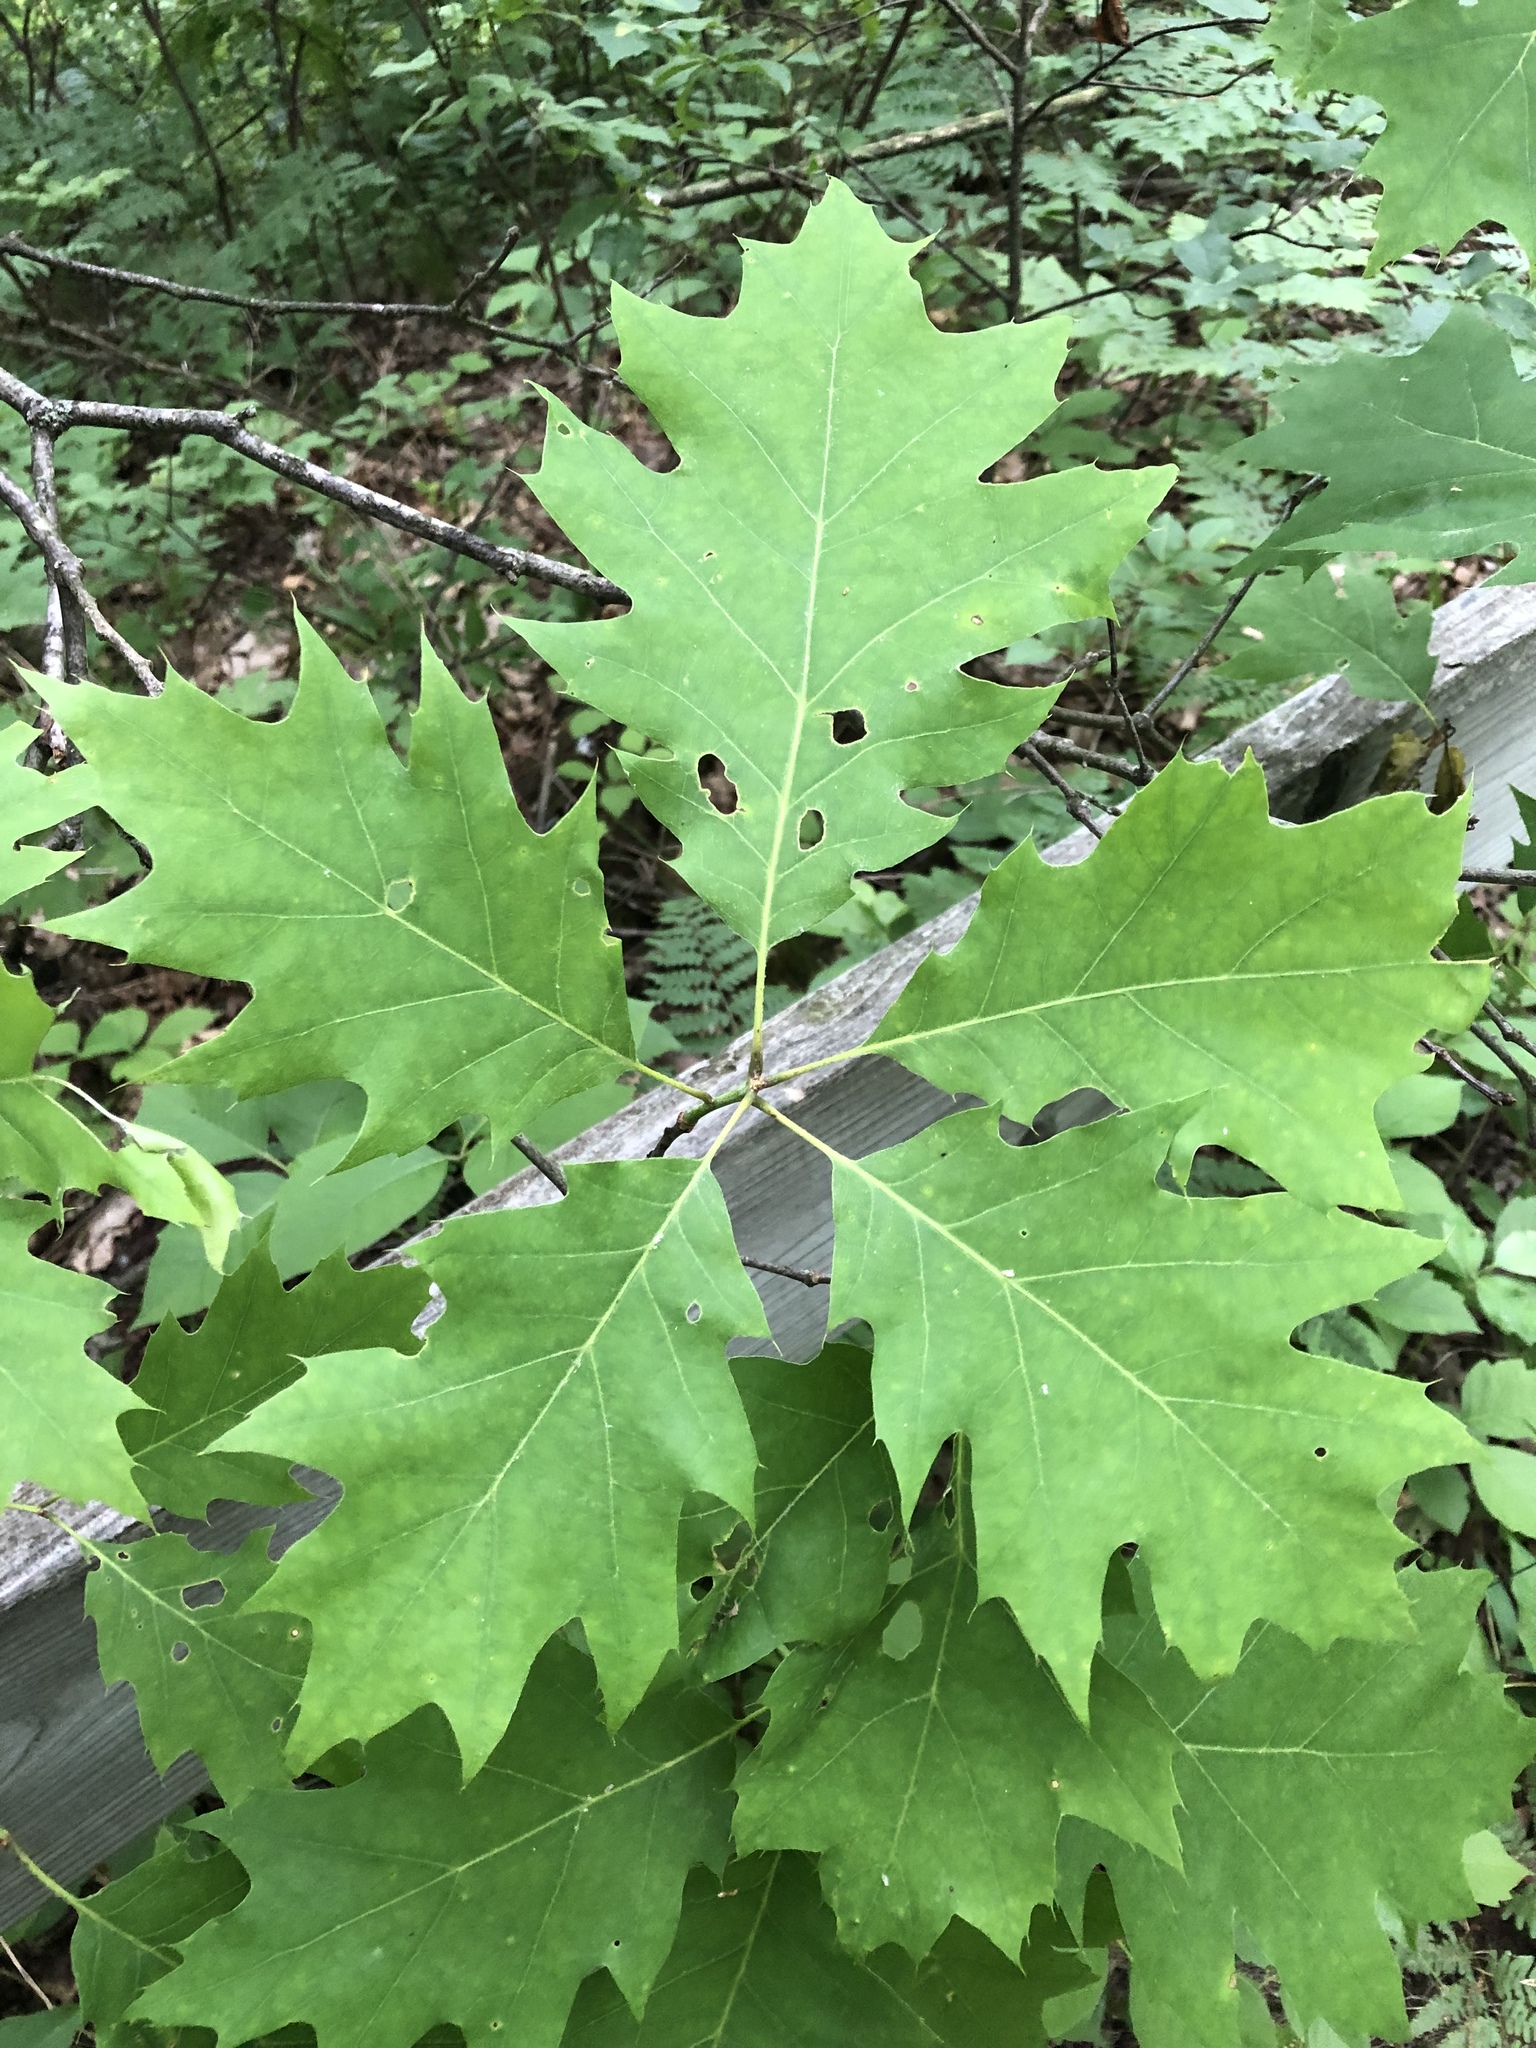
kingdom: Plantae
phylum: Tracheophyta
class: Magnoliopsida
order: Fagales
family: Fagaceae
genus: Quercus
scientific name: Quercus rubra
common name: Red oak
